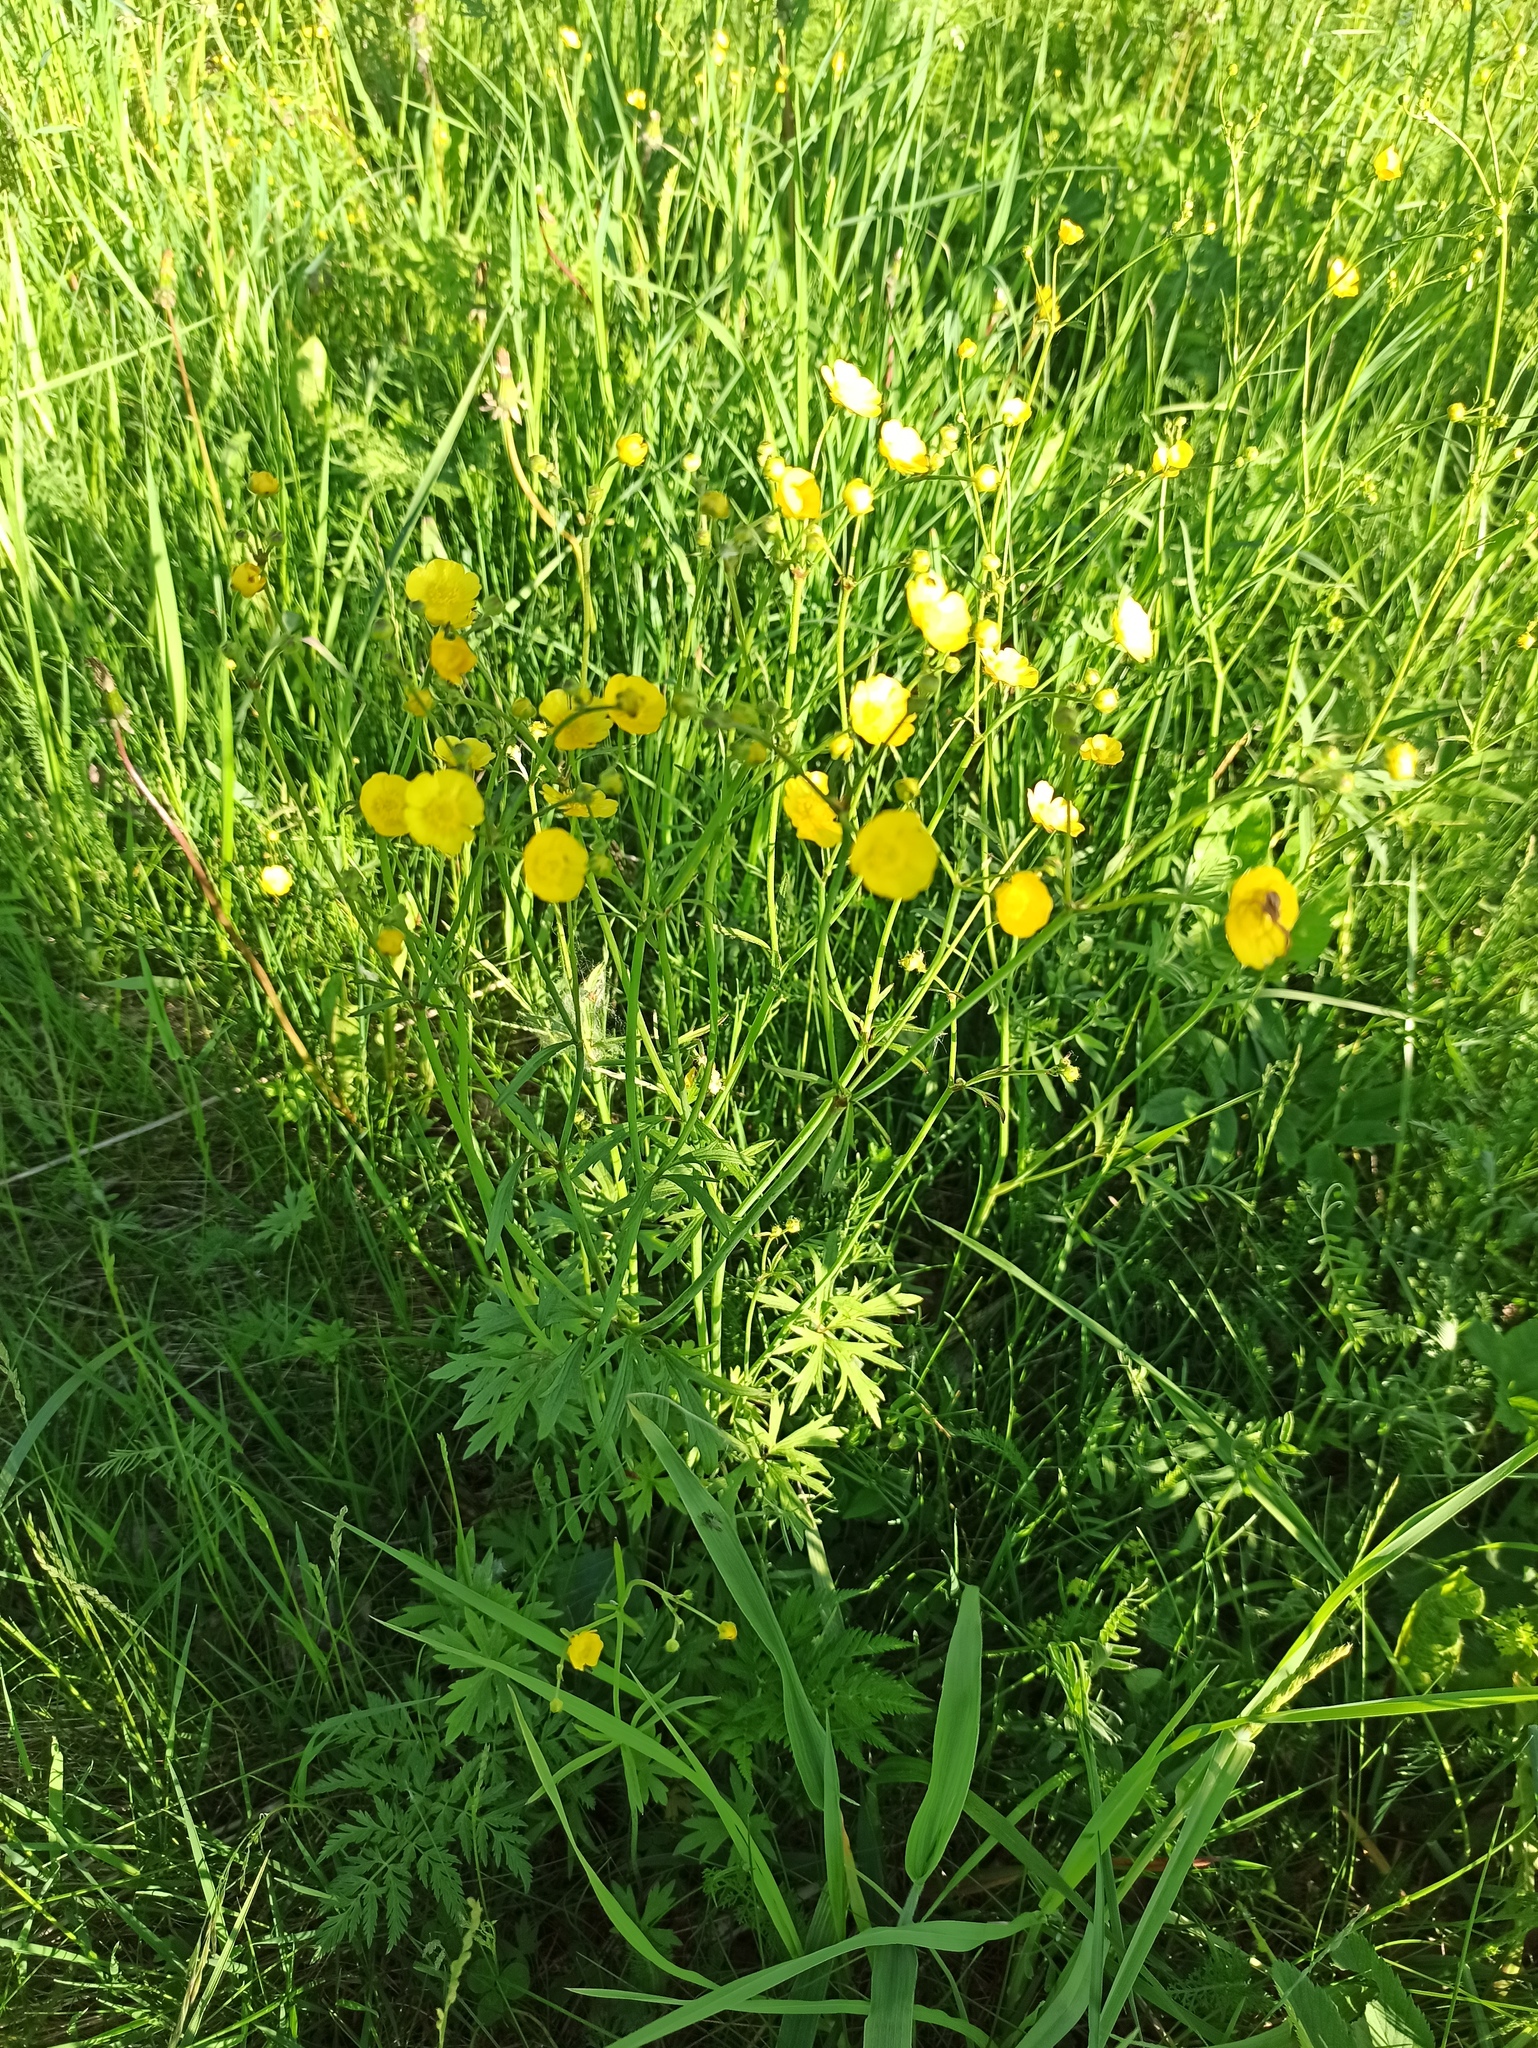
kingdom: Plantae
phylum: Tracheophyta
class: Magnoliopsida
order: Ranunculales
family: Ranunculaceae
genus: Ranunculus
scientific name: Ranunculus acris
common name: Meadow buttercup
